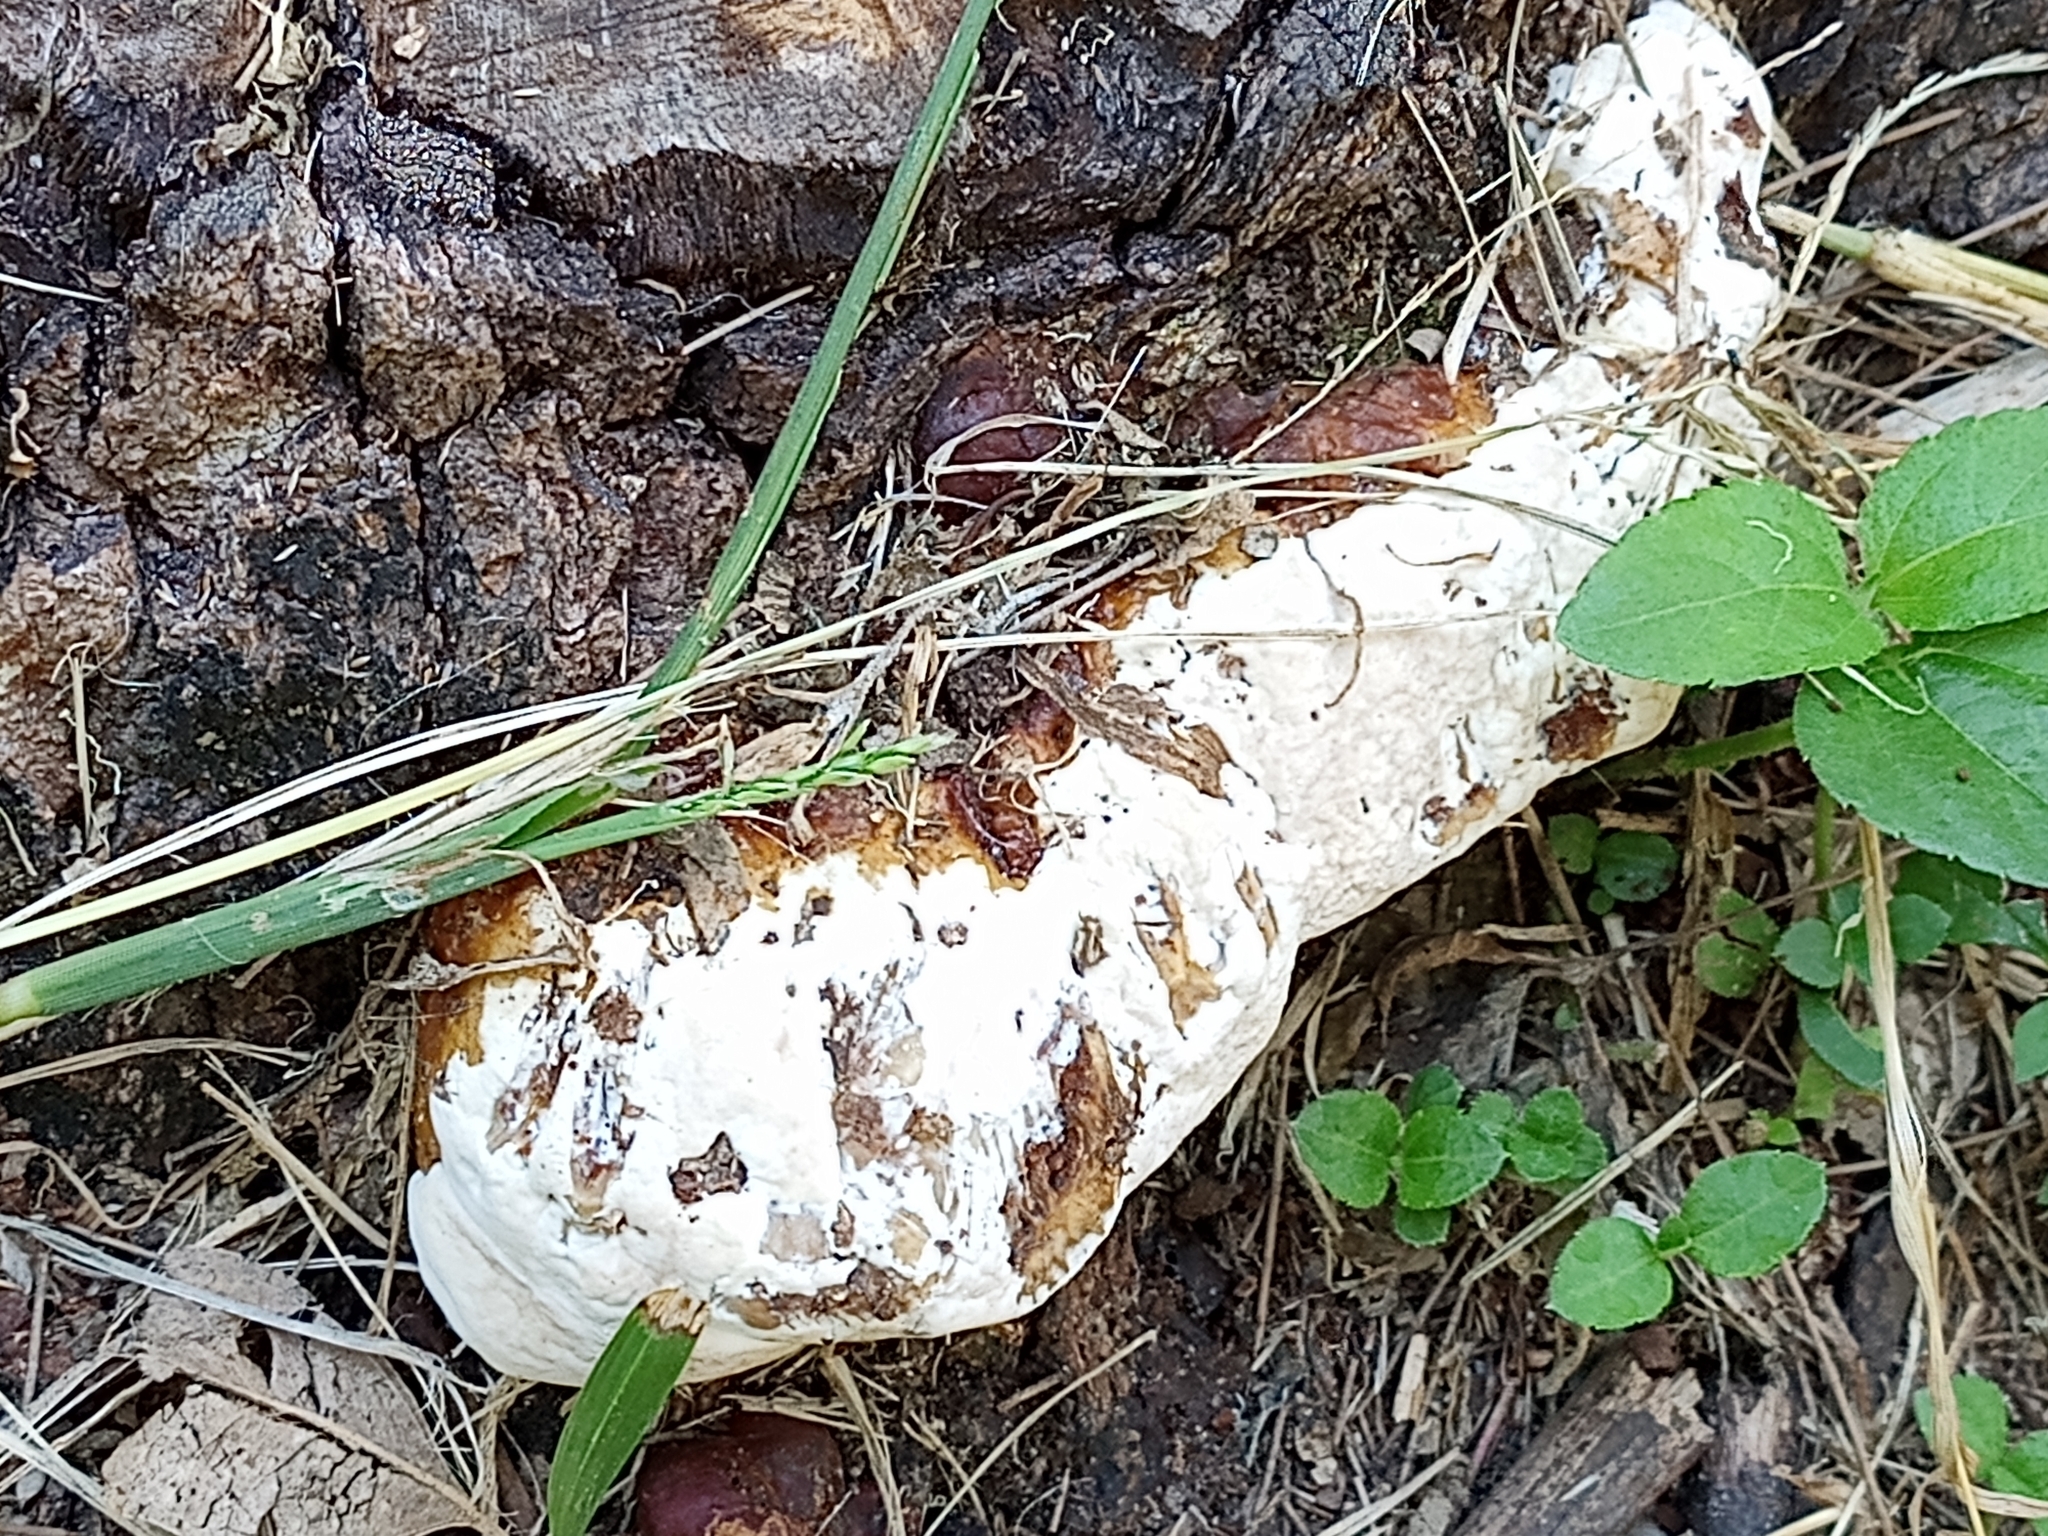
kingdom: Fungi
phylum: Basidiomycota
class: Agaricomycetes
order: Polyporales
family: Polyporaceae
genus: Ganoderma
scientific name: Ganoderma polychromum
